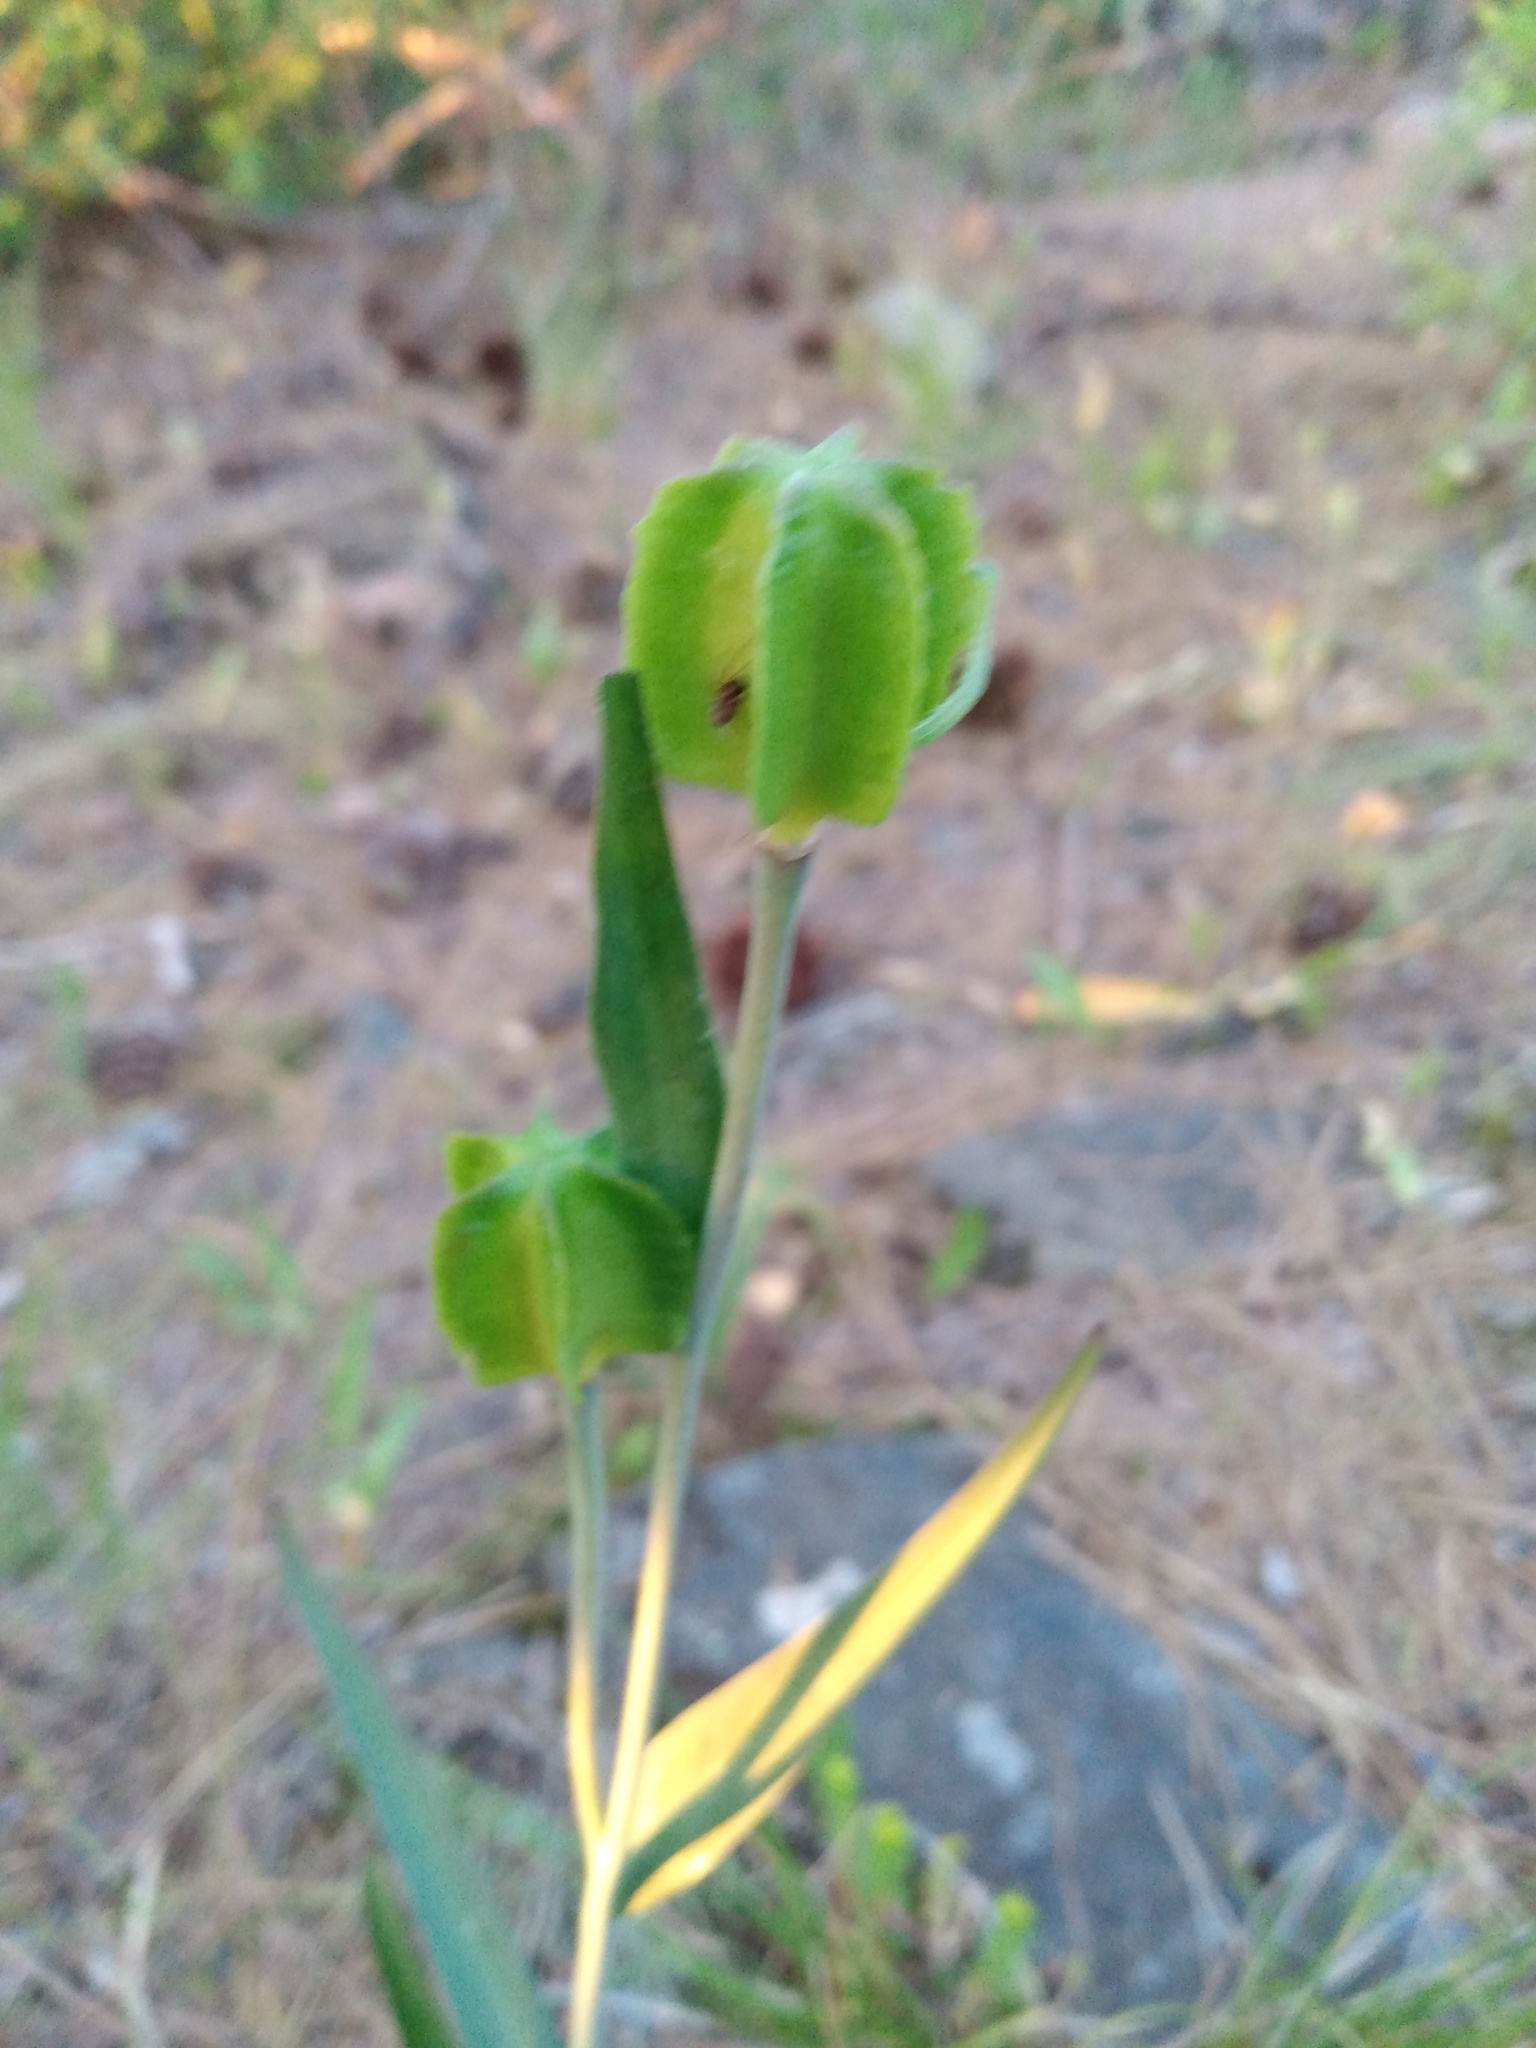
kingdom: Plantae
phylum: Tracheophyta
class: Liliopsida
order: Liliales
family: Liliaceae
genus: Fritillaria
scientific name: Fritillaria affinis
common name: Ojai fritillary
